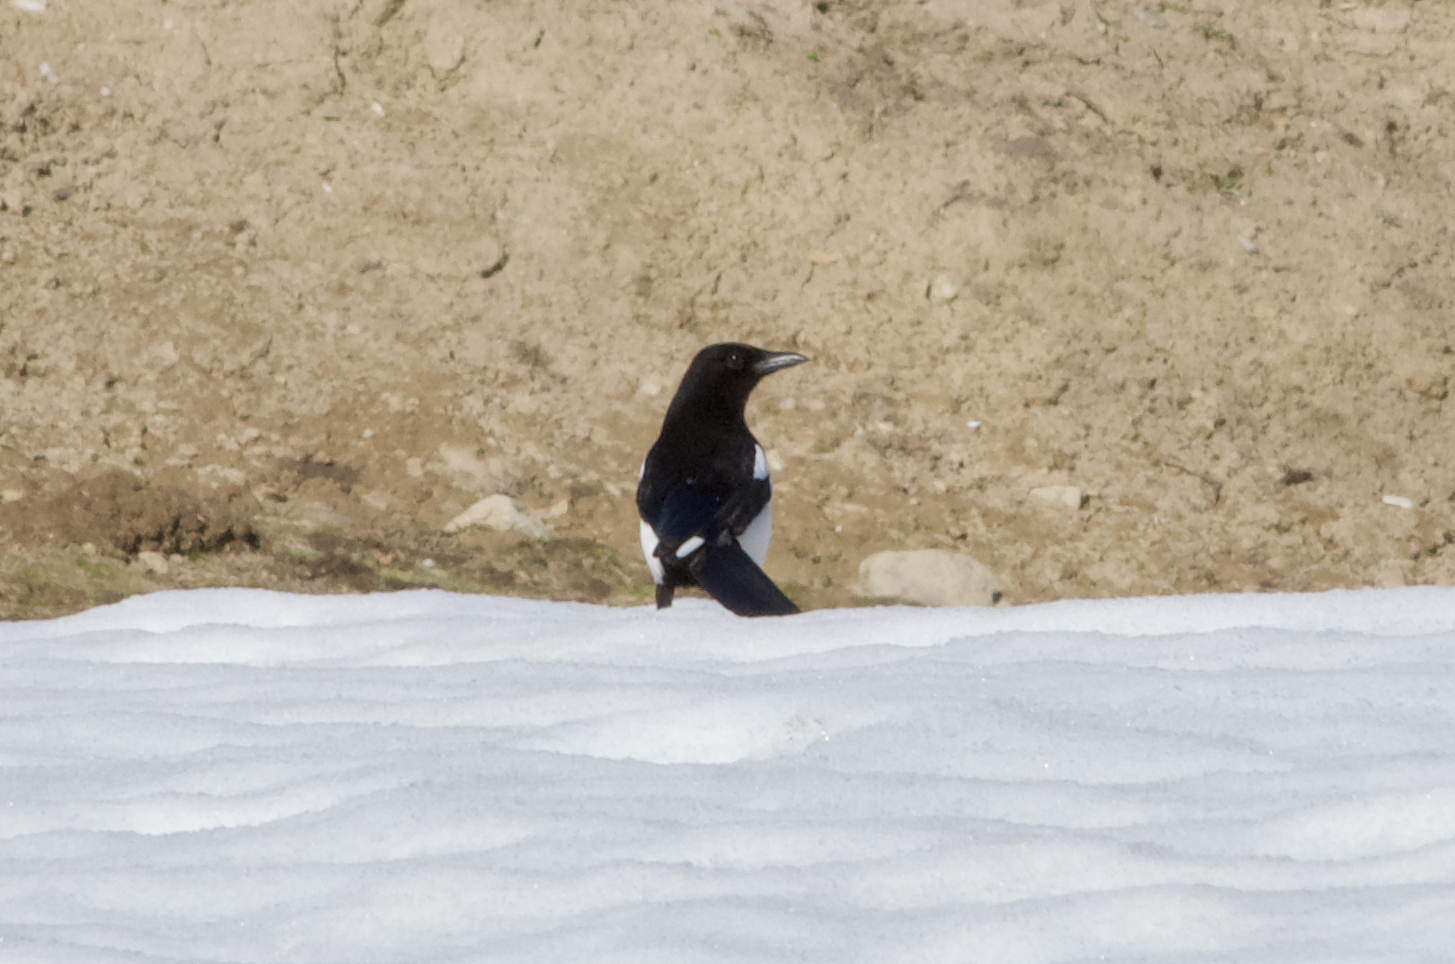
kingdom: Animalia
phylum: Chordata
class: Aves
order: Passeriformes
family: Corvidae
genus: Pica
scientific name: Pica pica
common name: Eurasian magpie
